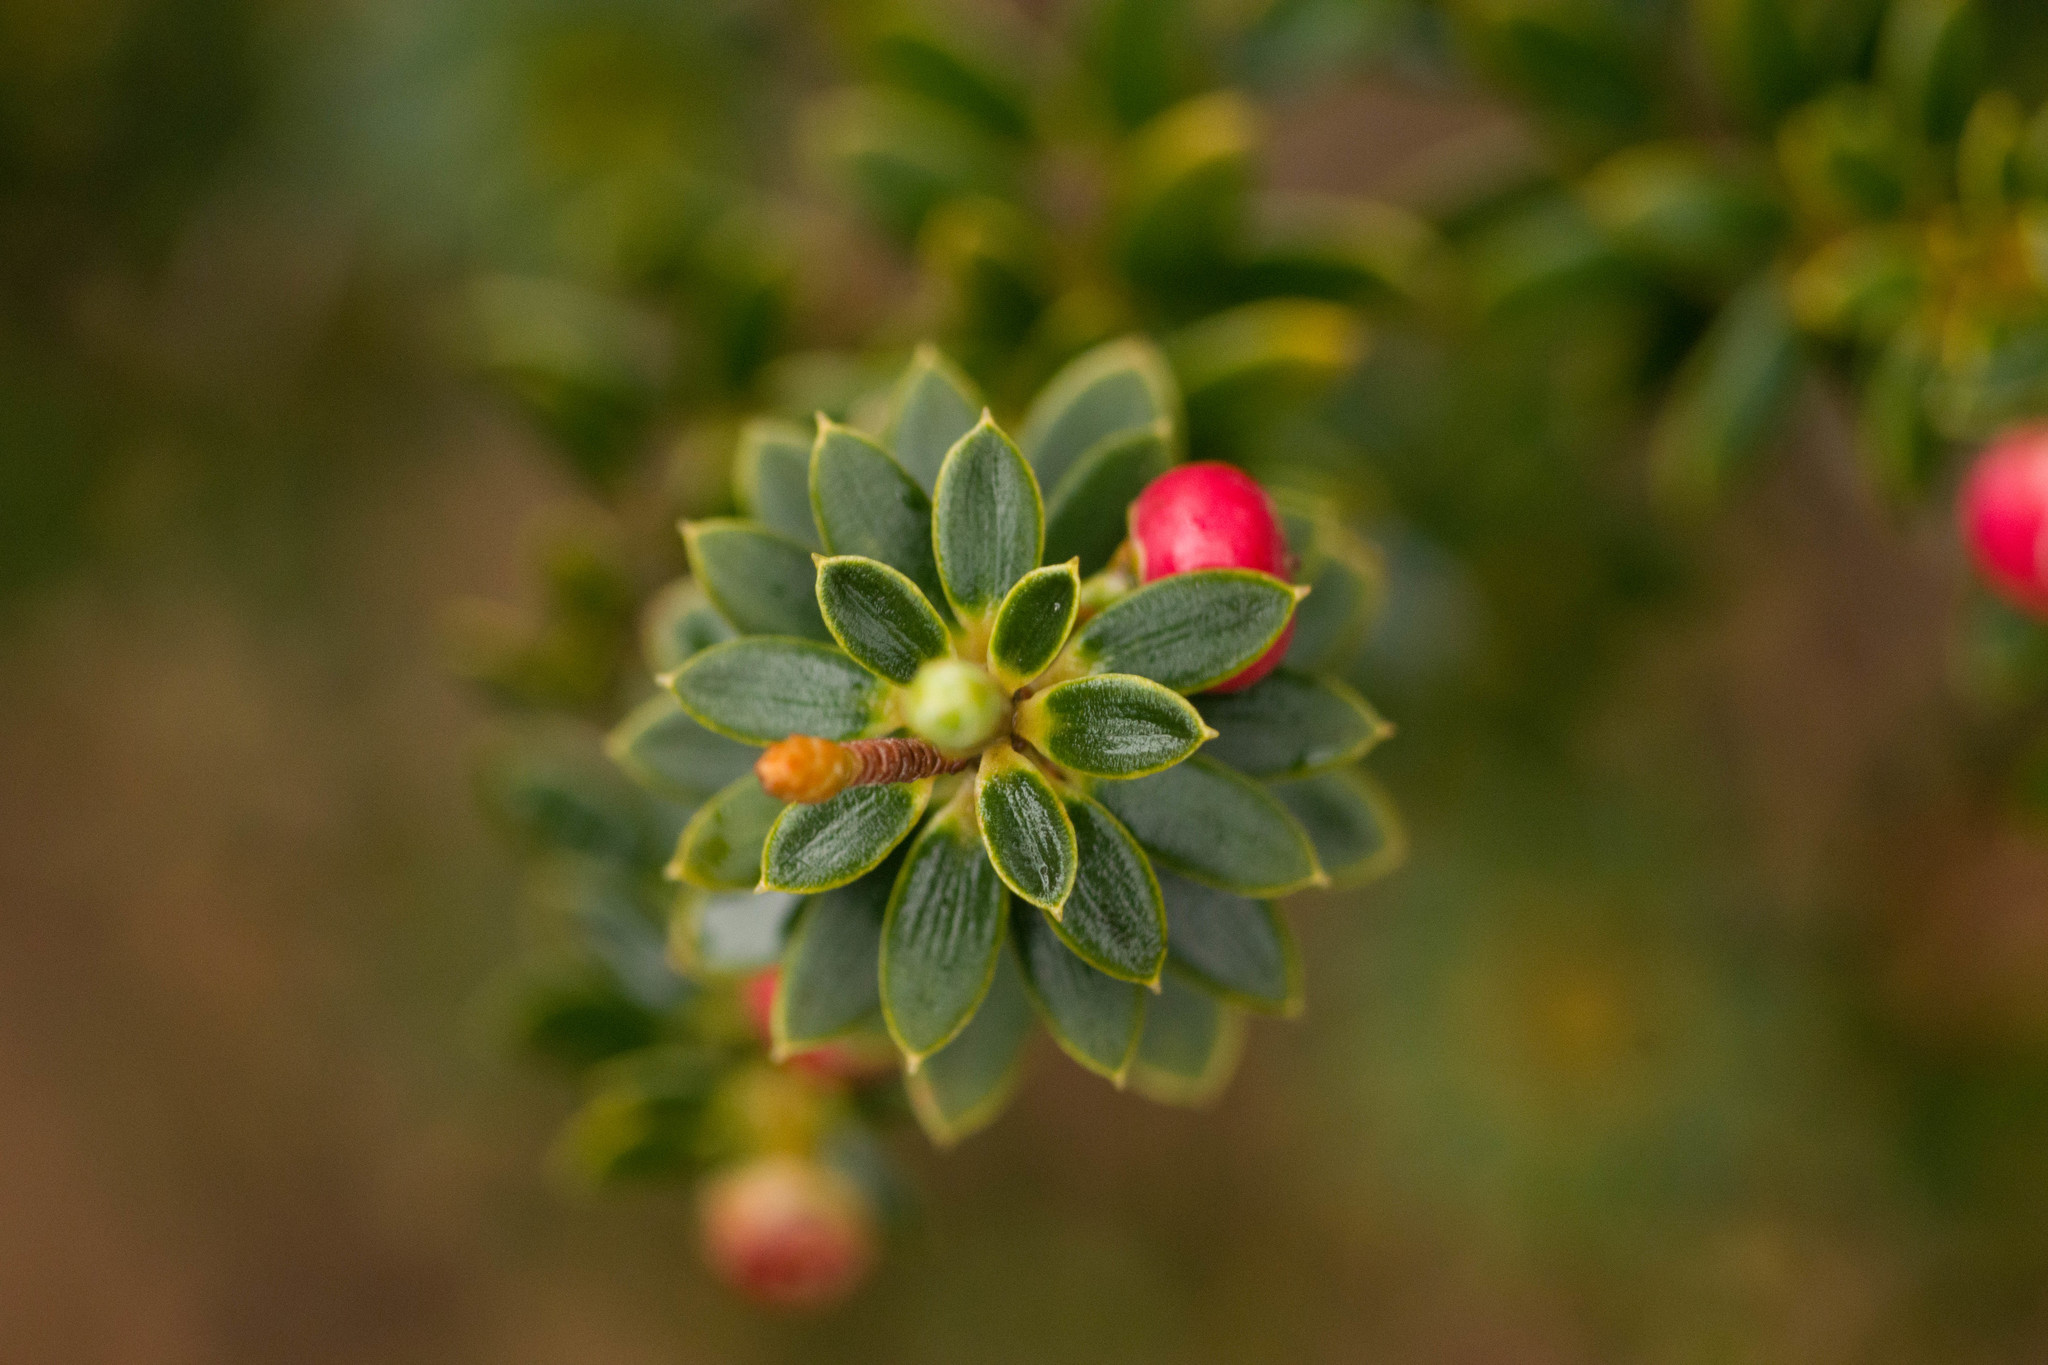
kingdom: Plantae
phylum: Tracheophyta
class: Magnoliopsida
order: Ericales
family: Ericaceae
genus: Leptecophylla
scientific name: Leptecophylla tameiameiae
